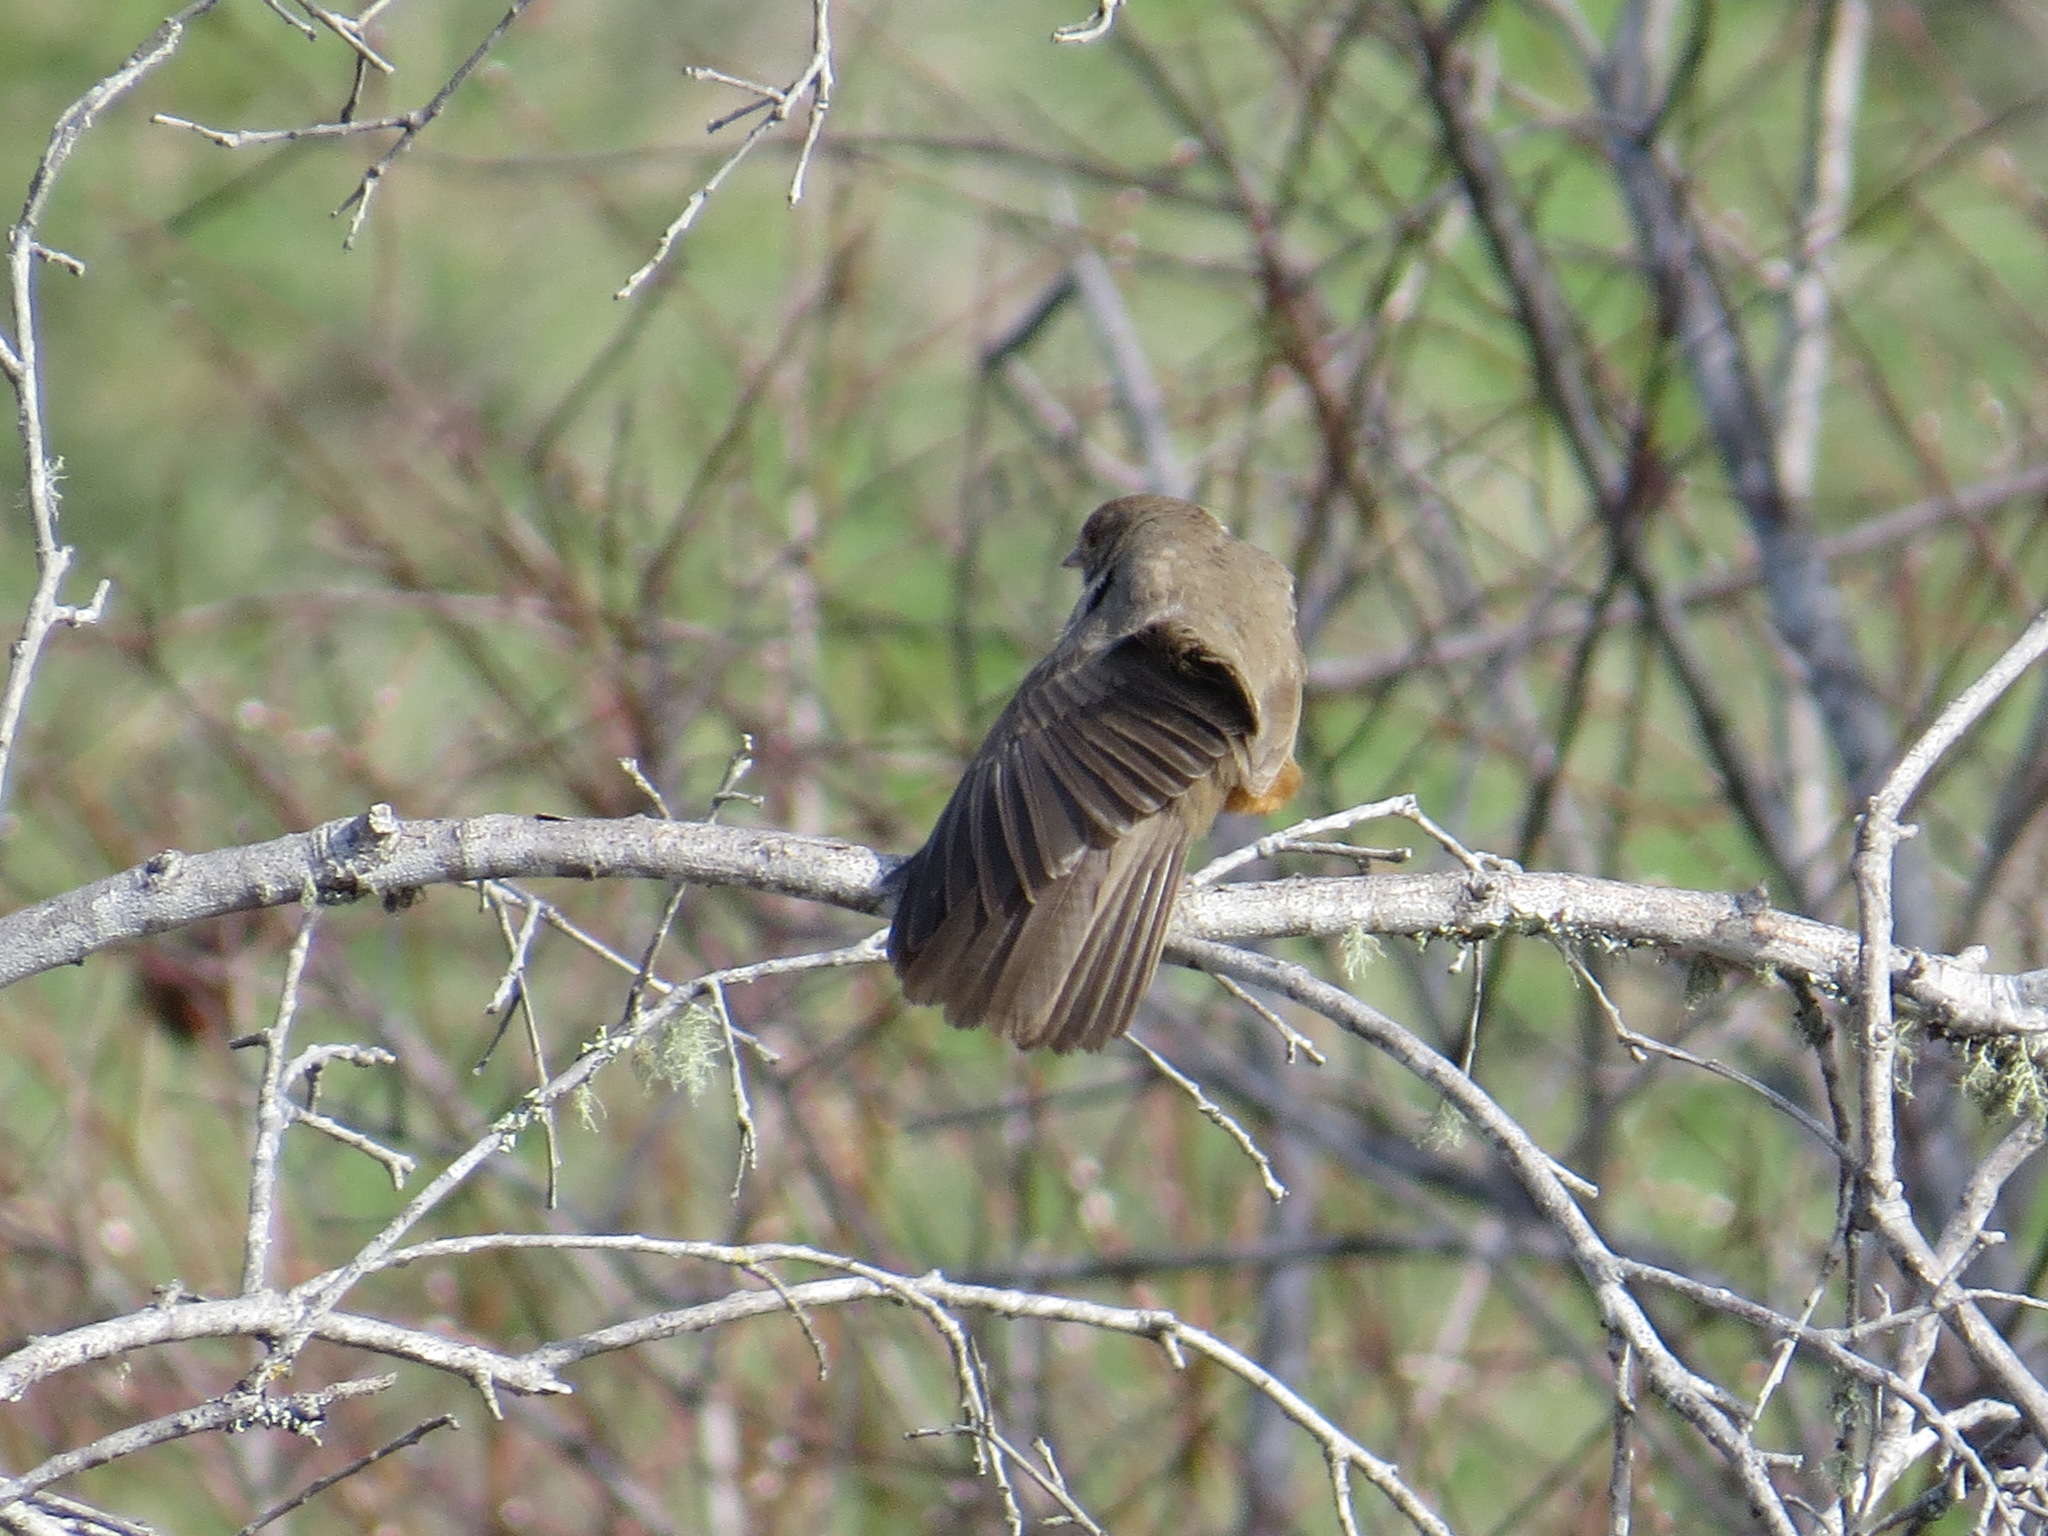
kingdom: Animalia
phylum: Chordata
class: Aves
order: Passeriformes
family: Passerellidae
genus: Melozone
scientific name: Melozone crissalis
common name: California towhee
